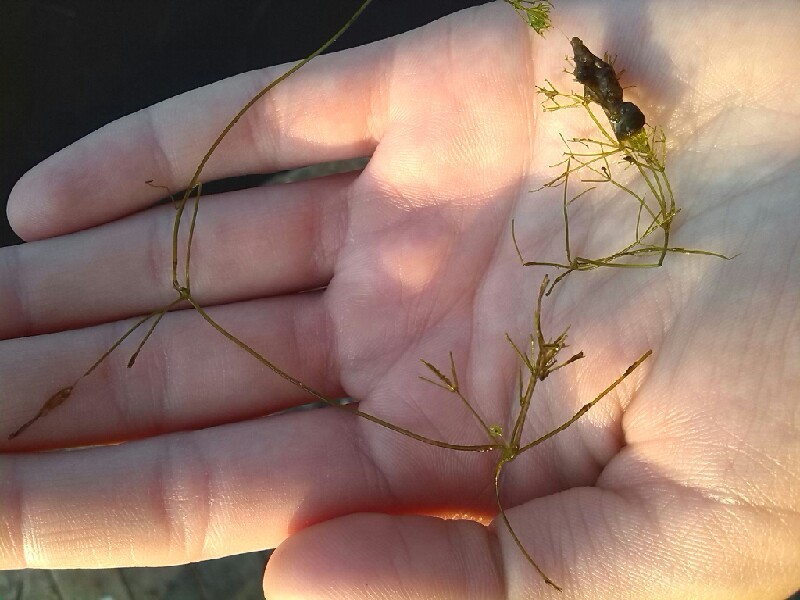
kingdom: Plantae
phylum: Charophyta
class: Charophyceae
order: Charales
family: Characeae
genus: Nitella
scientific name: Nitella mucronata
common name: Compact stonewort
